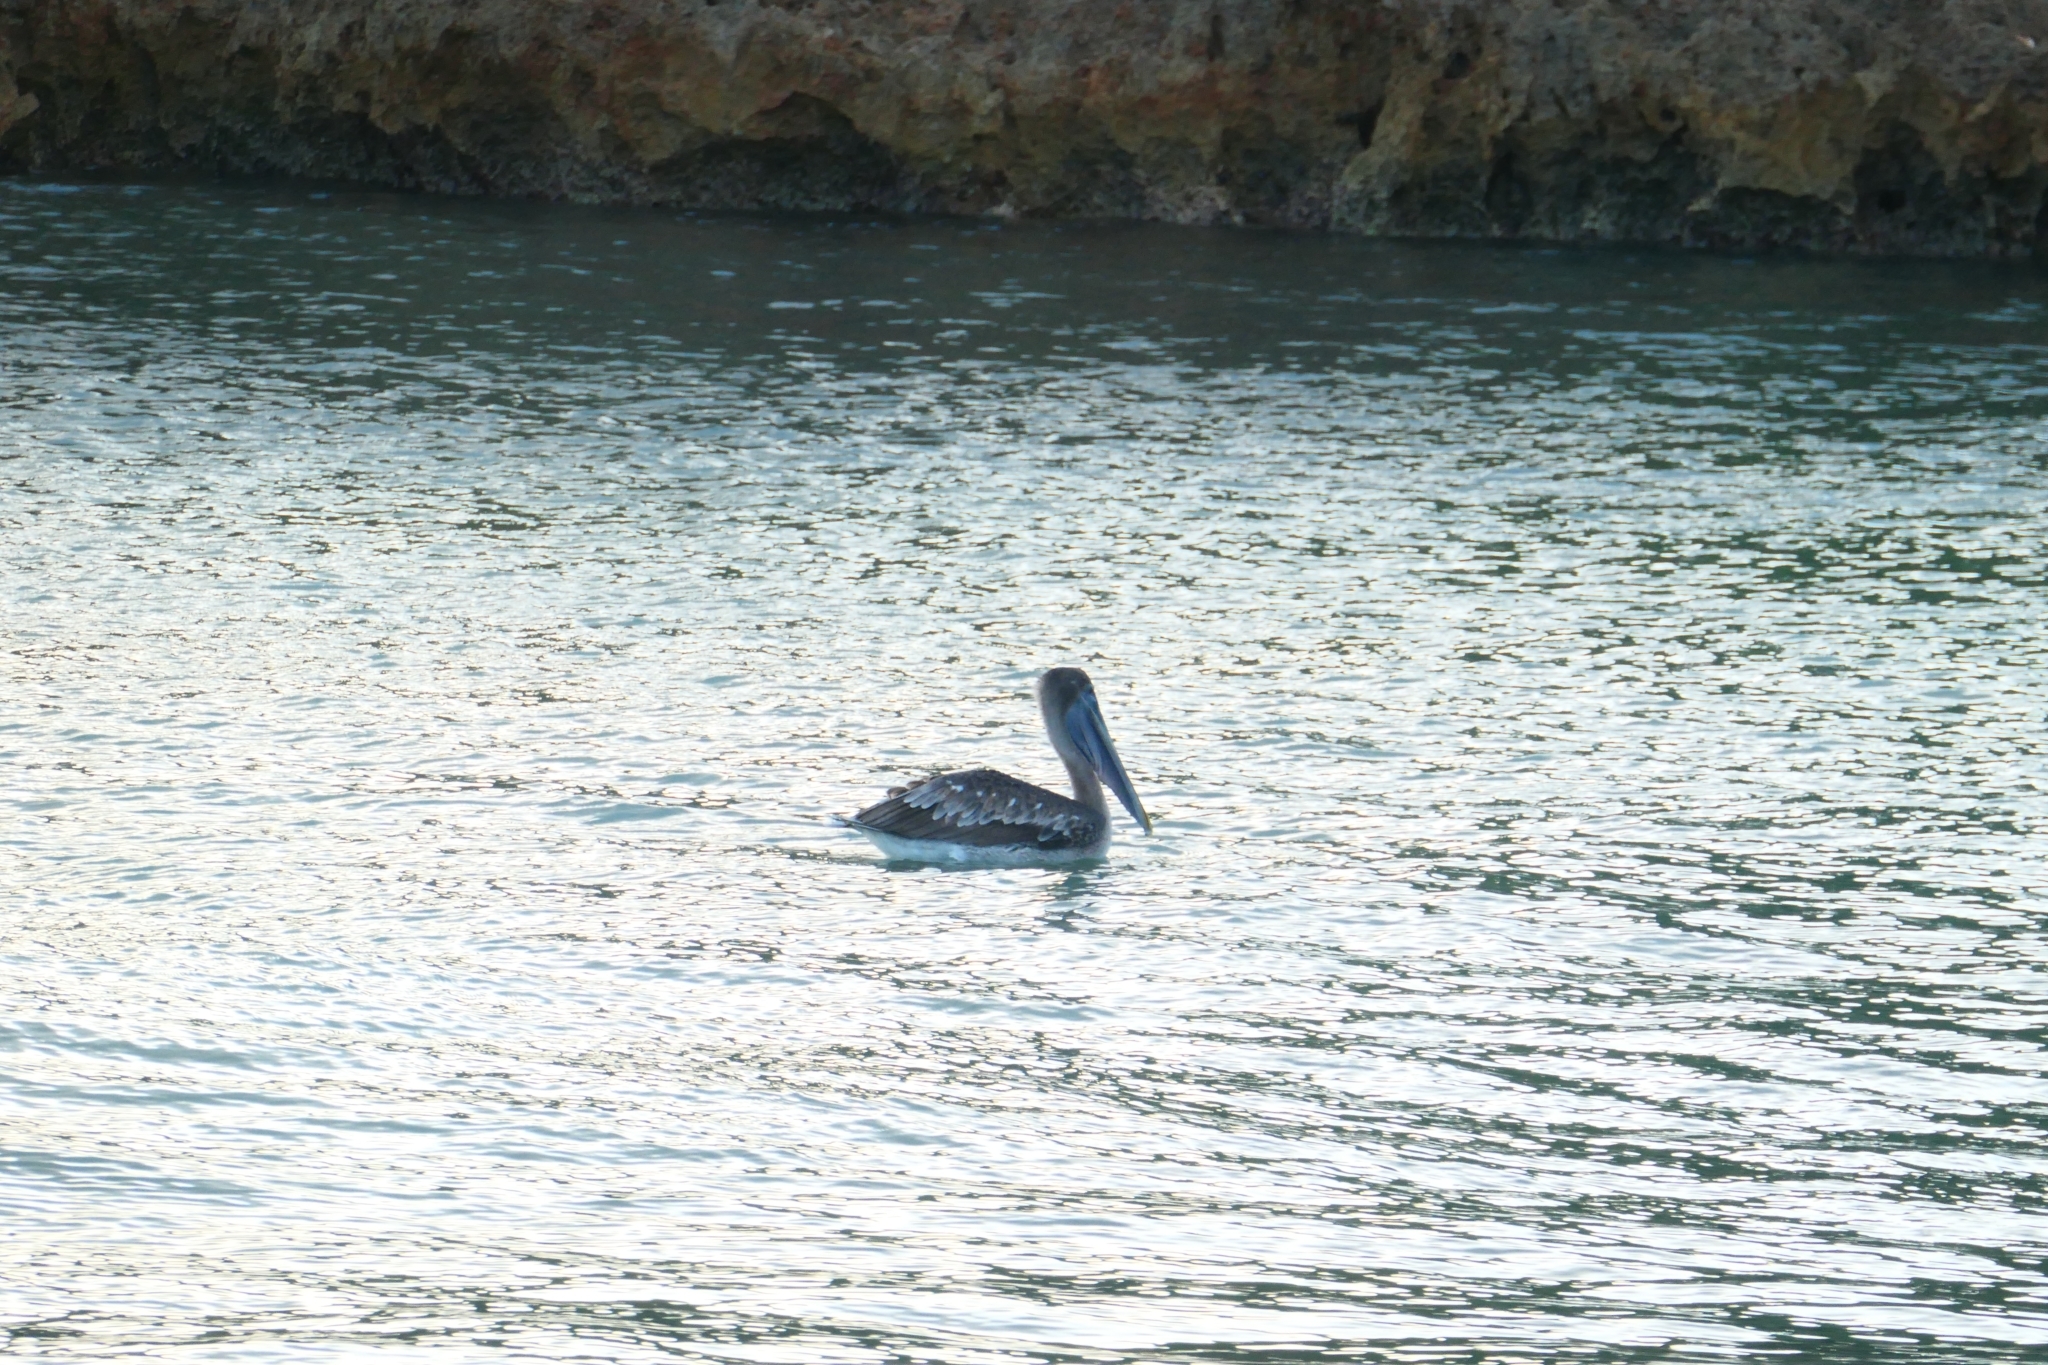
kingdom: Animalia
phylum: Chordata
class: Aves
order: Pelecaniformes
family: Pelecanidae
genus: Pelecanus
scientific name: Pelecanus occidentalis
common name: Brown pelican
